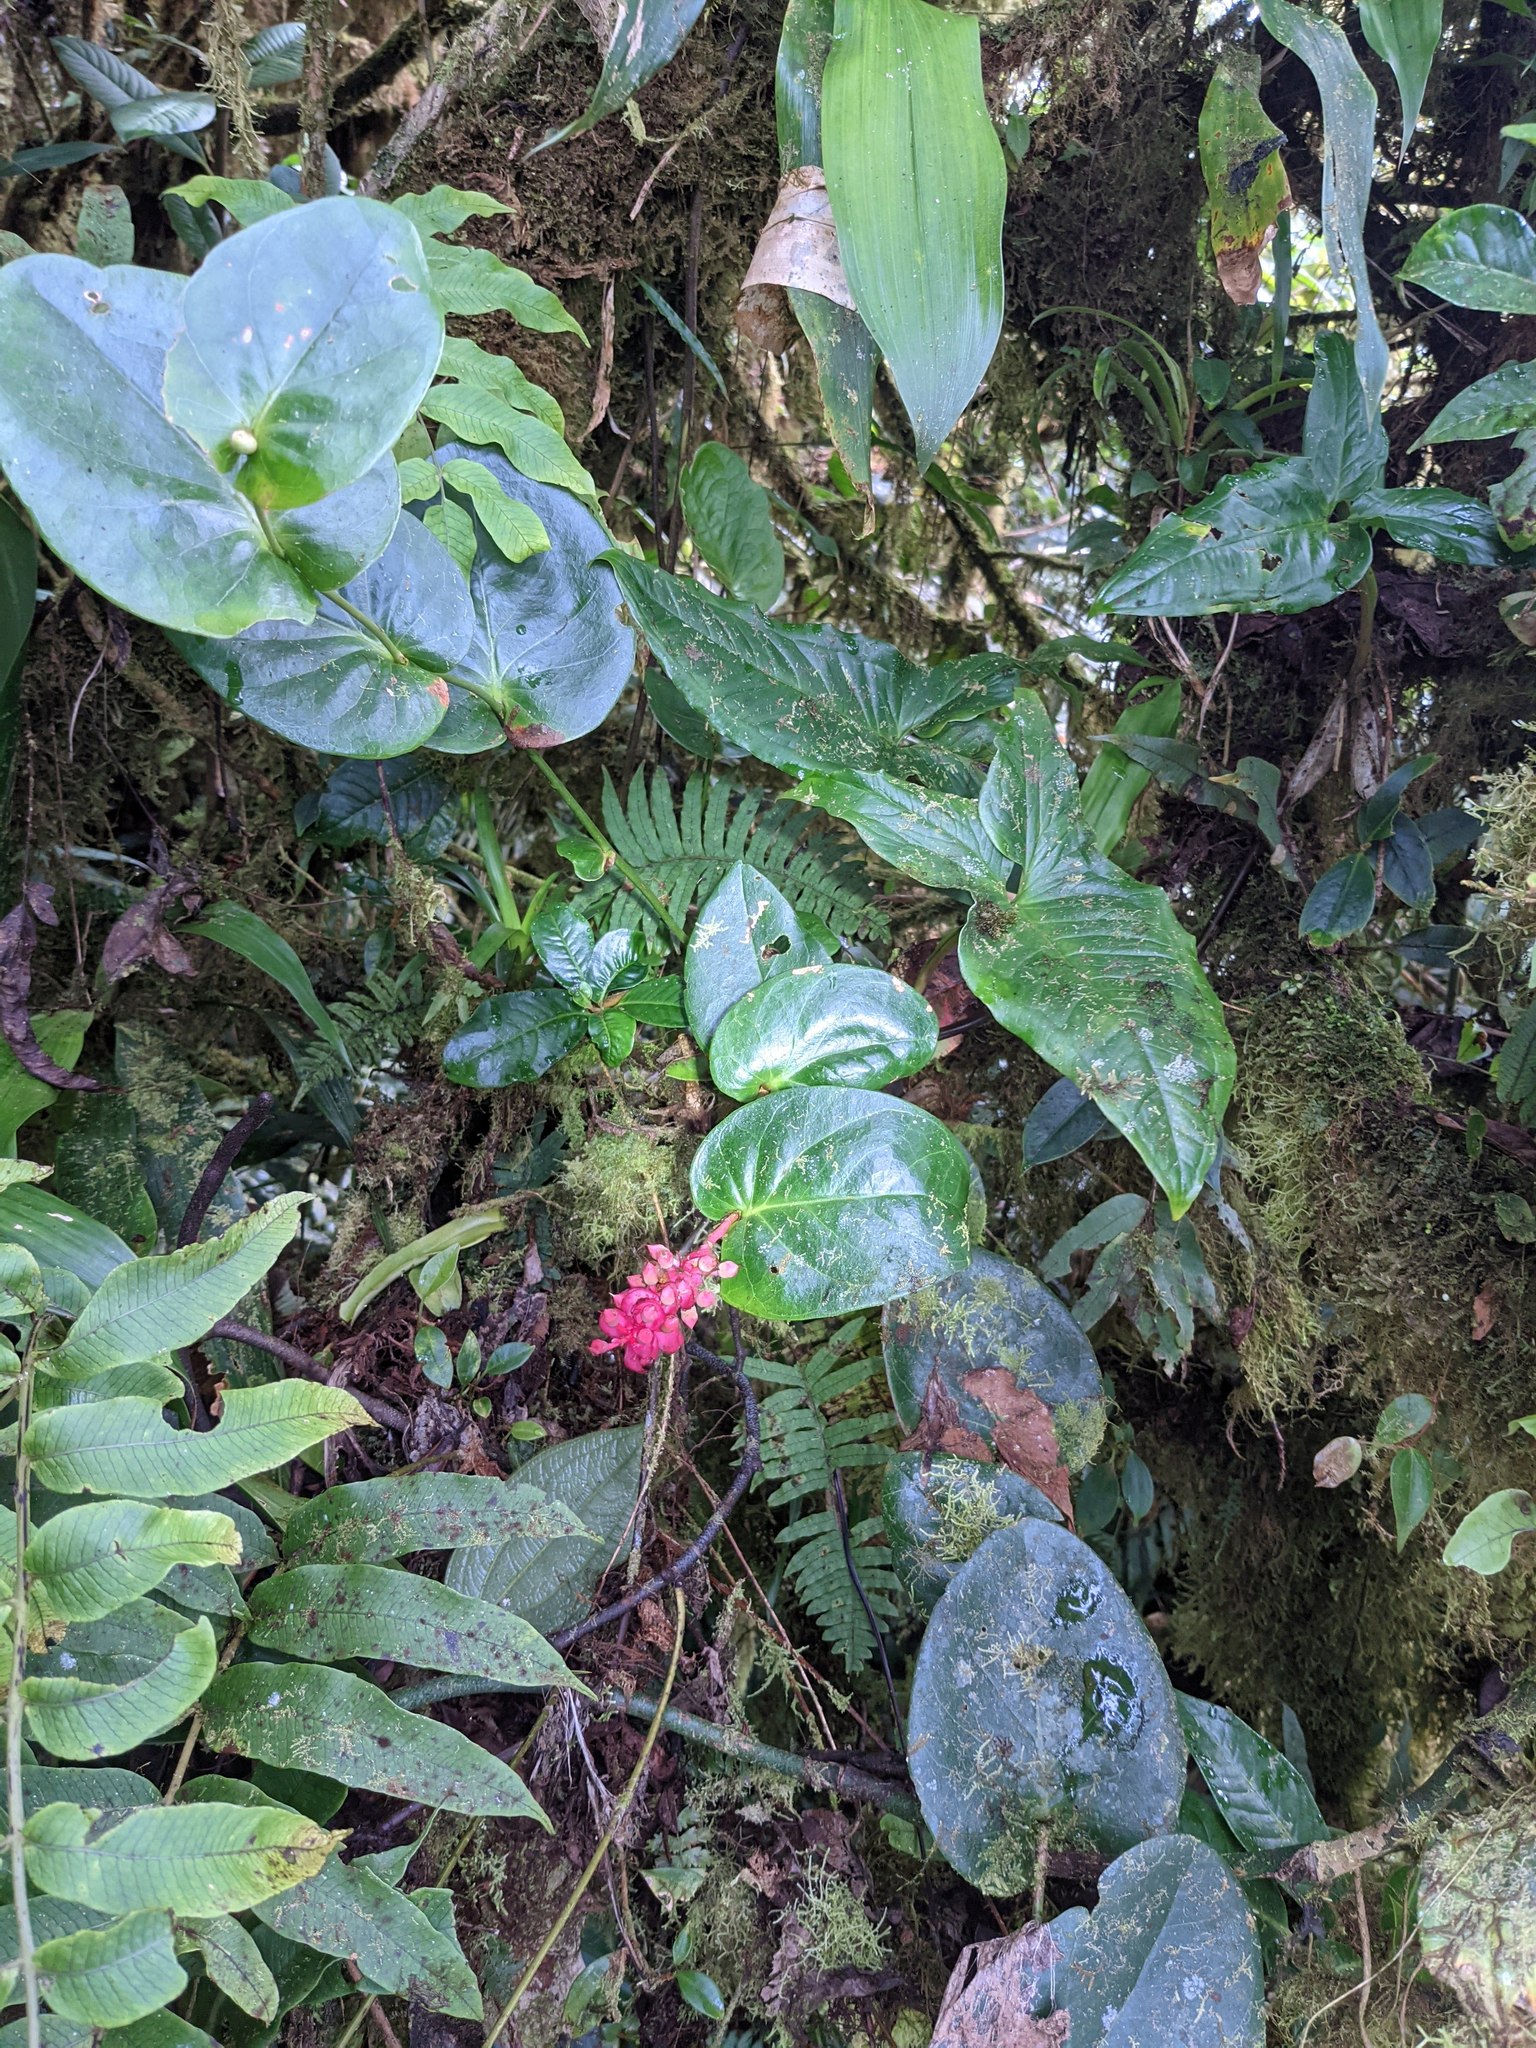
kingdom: Plantae
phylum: Tracheophyta
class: Magnoliopsida
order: Ericales
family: Ericaceae
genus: Cavendishia
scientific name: Cavendishia complectens
